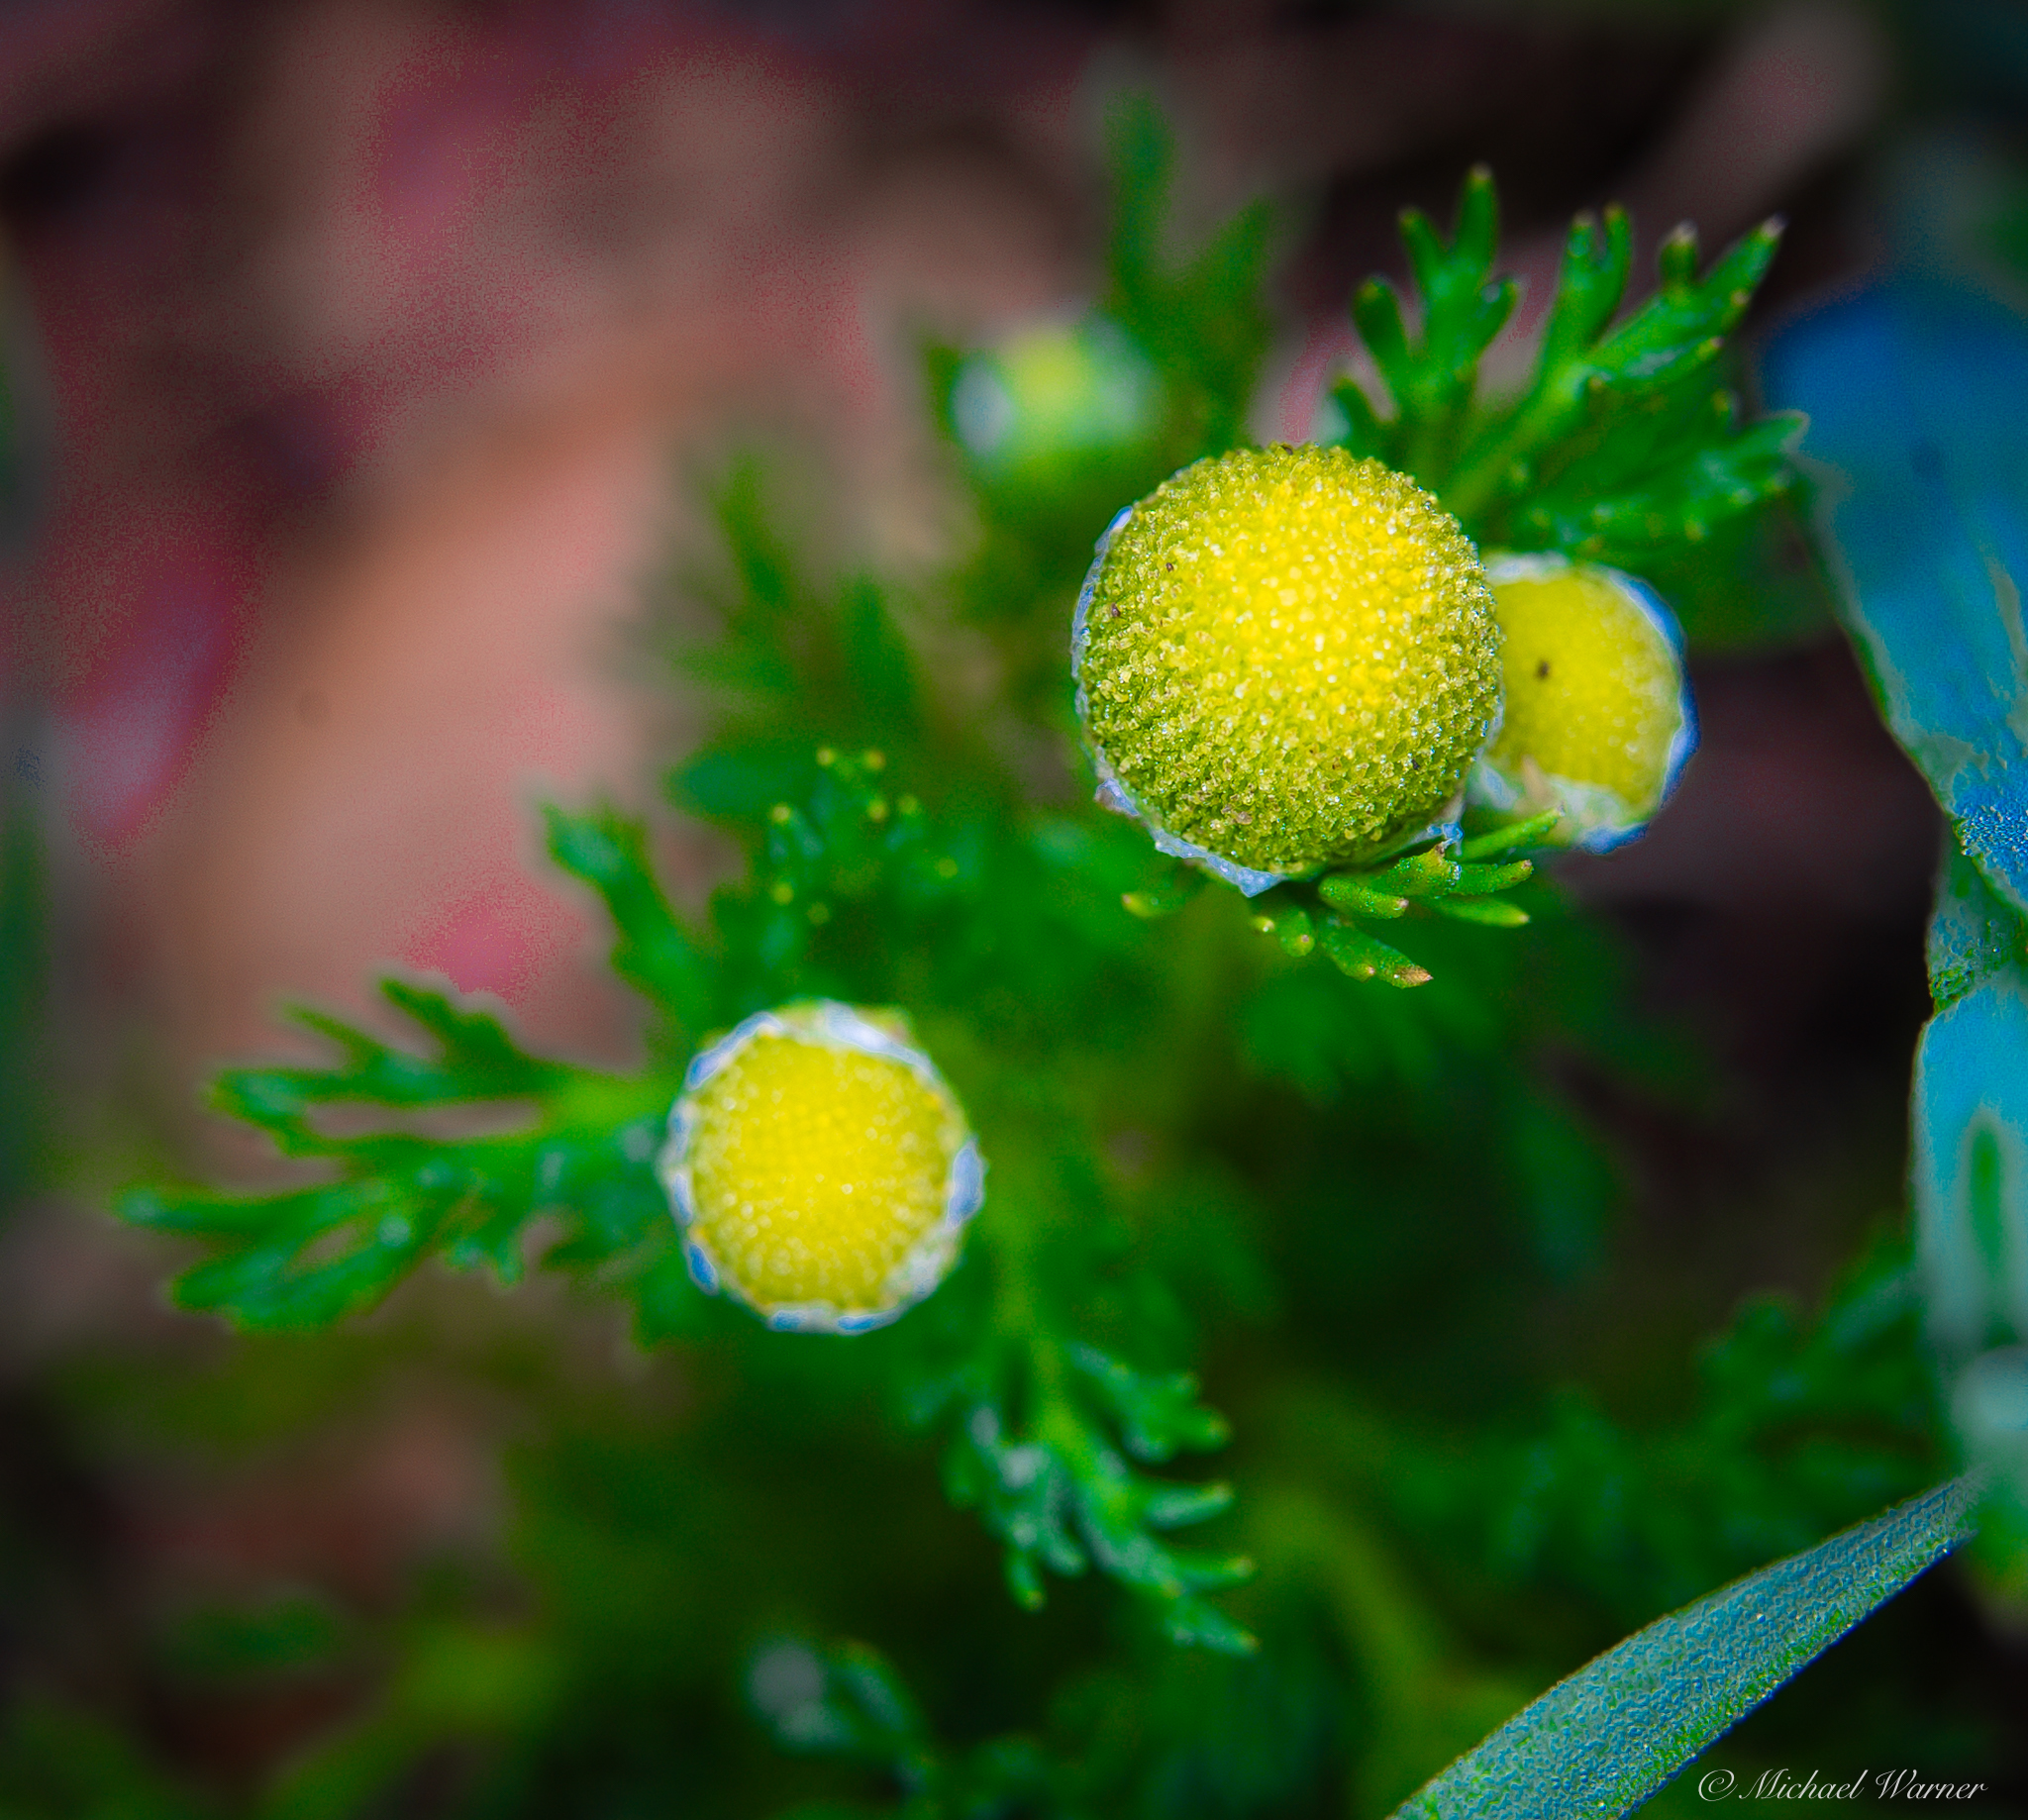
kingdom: Plantae
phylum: Tracheophyta
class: Magnoliopsida
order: Asterales
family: Asteraceae
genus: Matricaria
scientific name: Matricaria discoidea
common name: Disc mayweed
